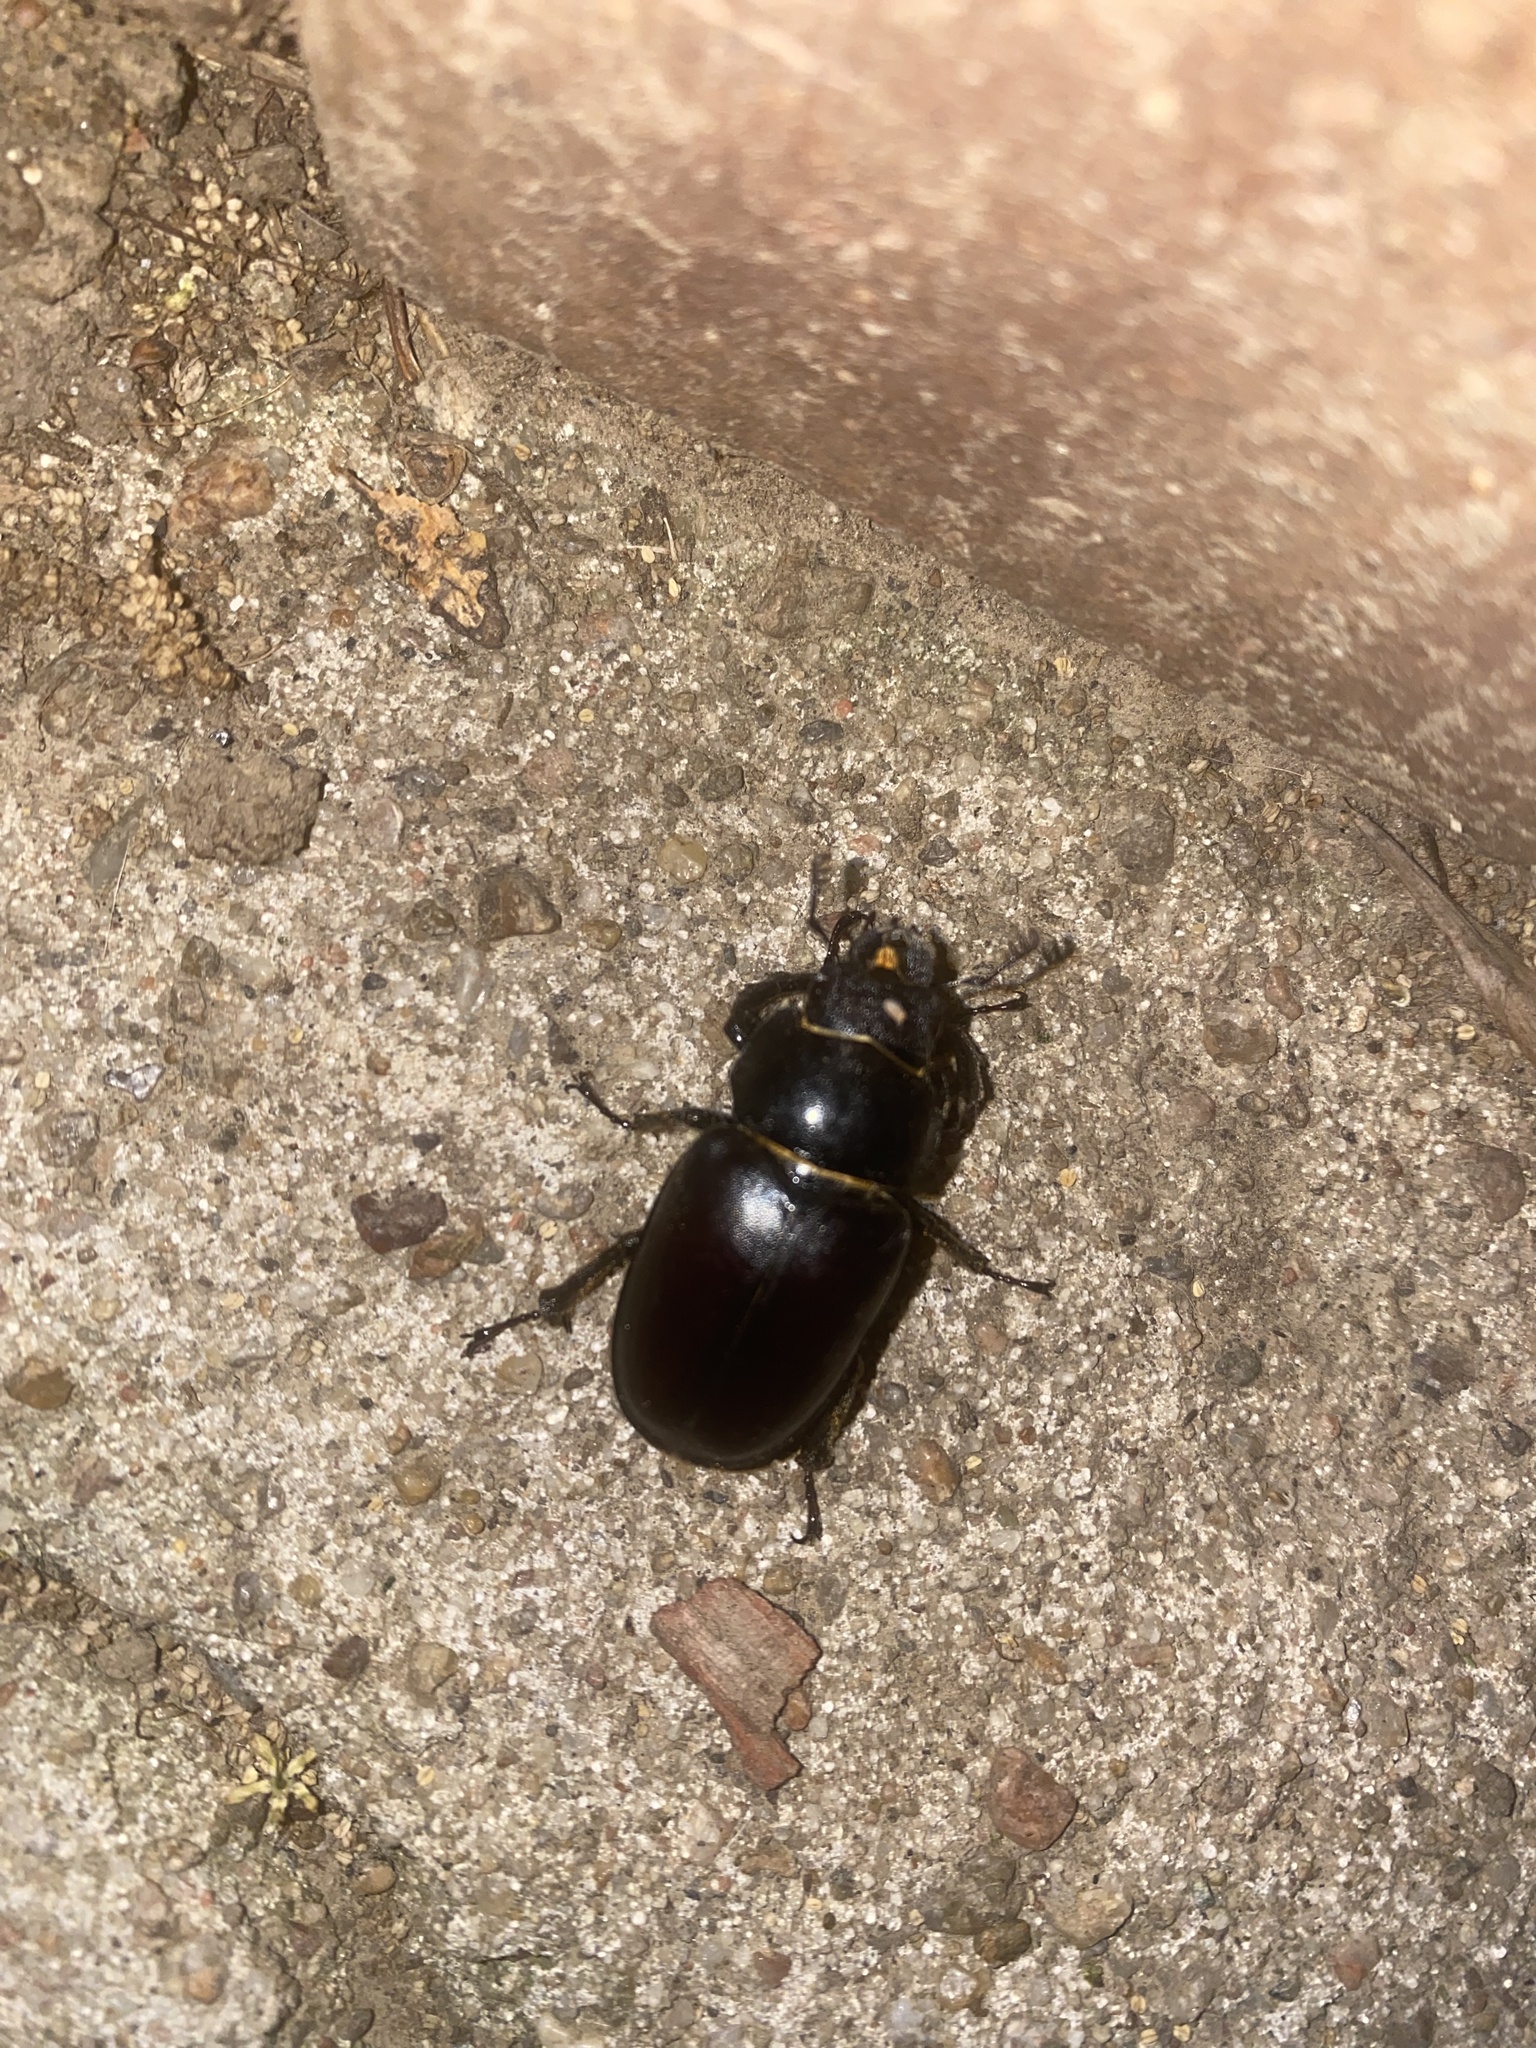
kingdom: Animalia
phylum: Arthropoda
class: Insecta
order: Coleoptera
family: Lucanidae
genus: Lucanus
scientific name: Lucanus placidus
